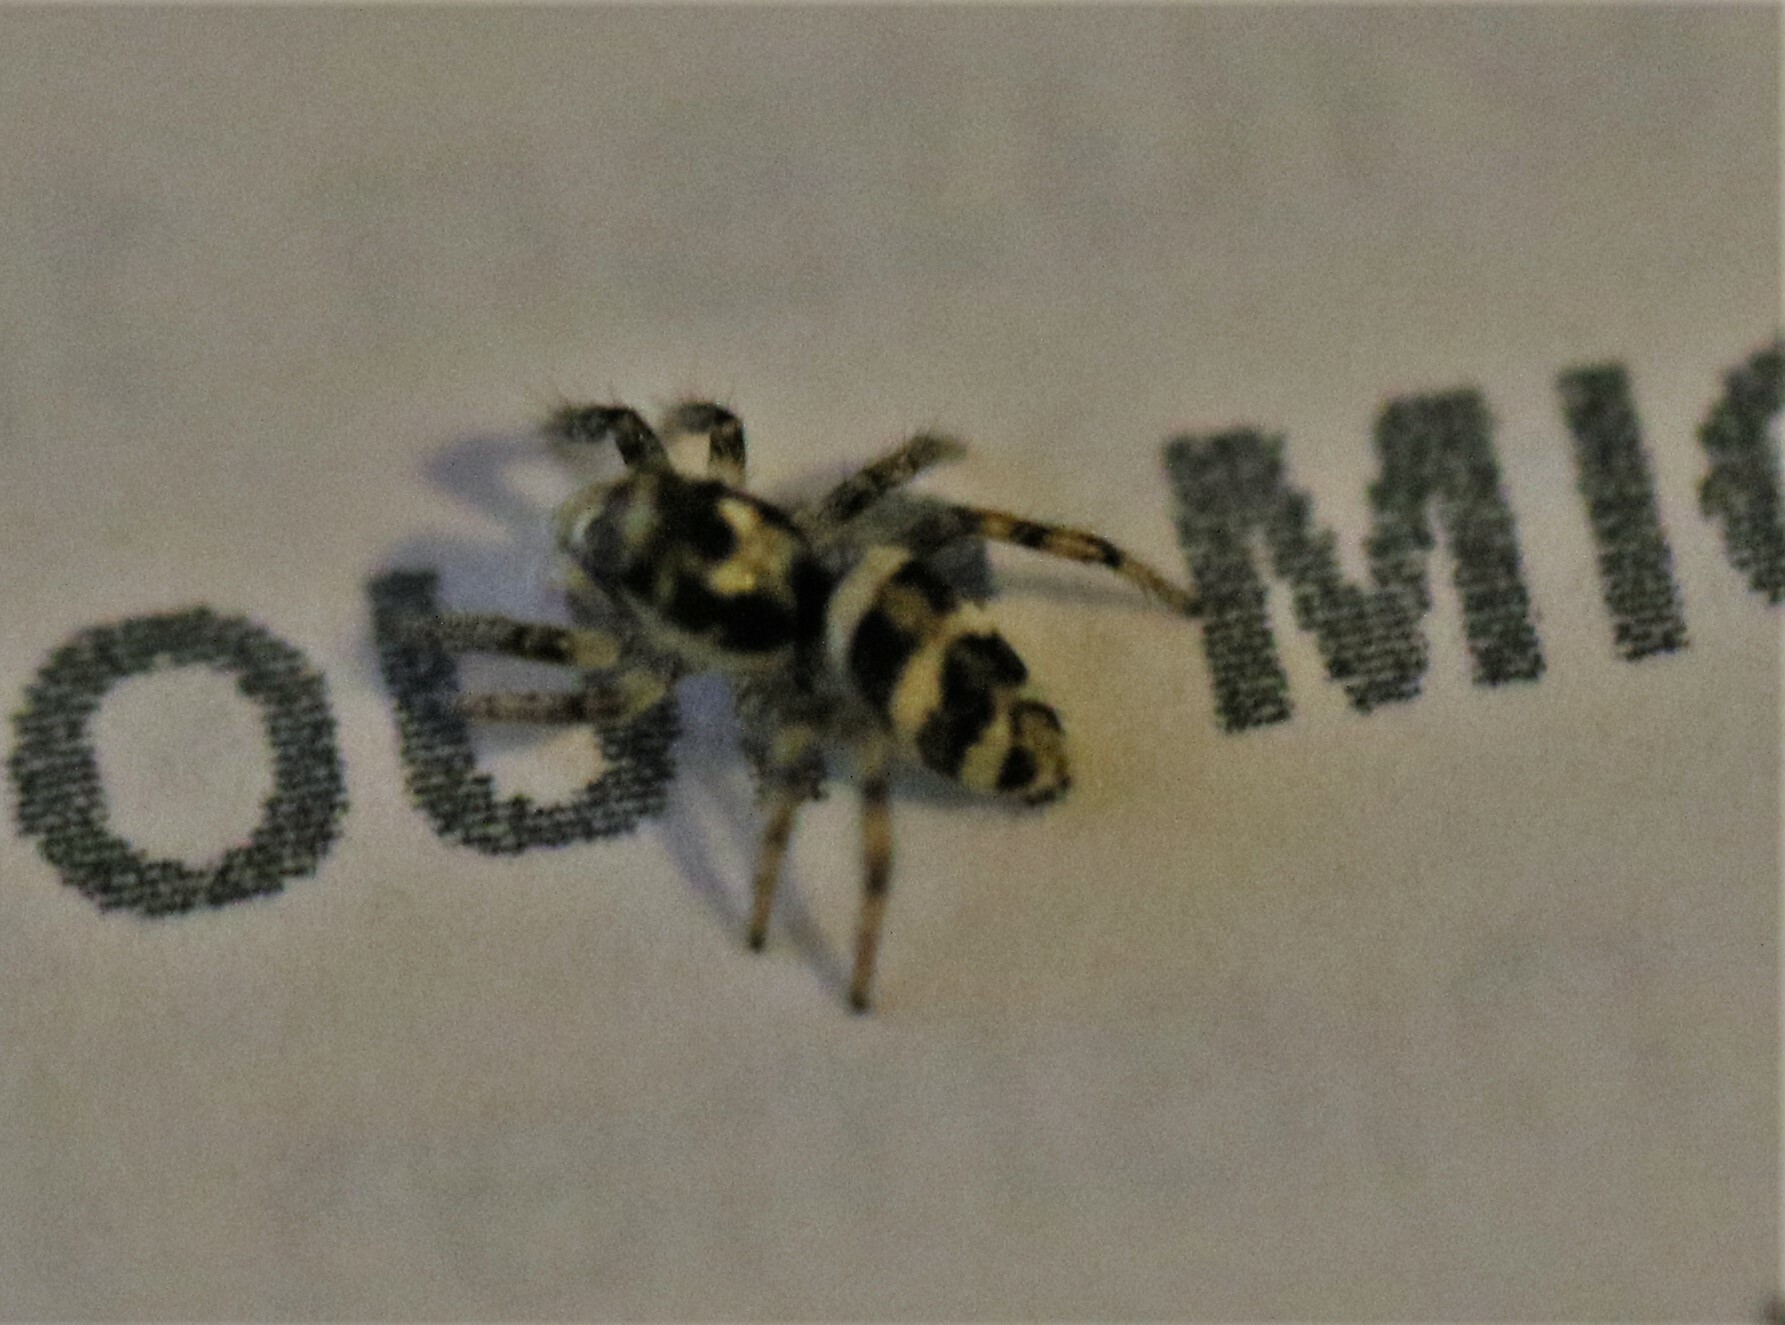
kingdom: Animalia
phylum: Arthropoda
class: Arachnida
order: Araneae
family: Salticidae
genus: Salticus
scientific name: Salticus scenicus
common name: Zebra jumper
